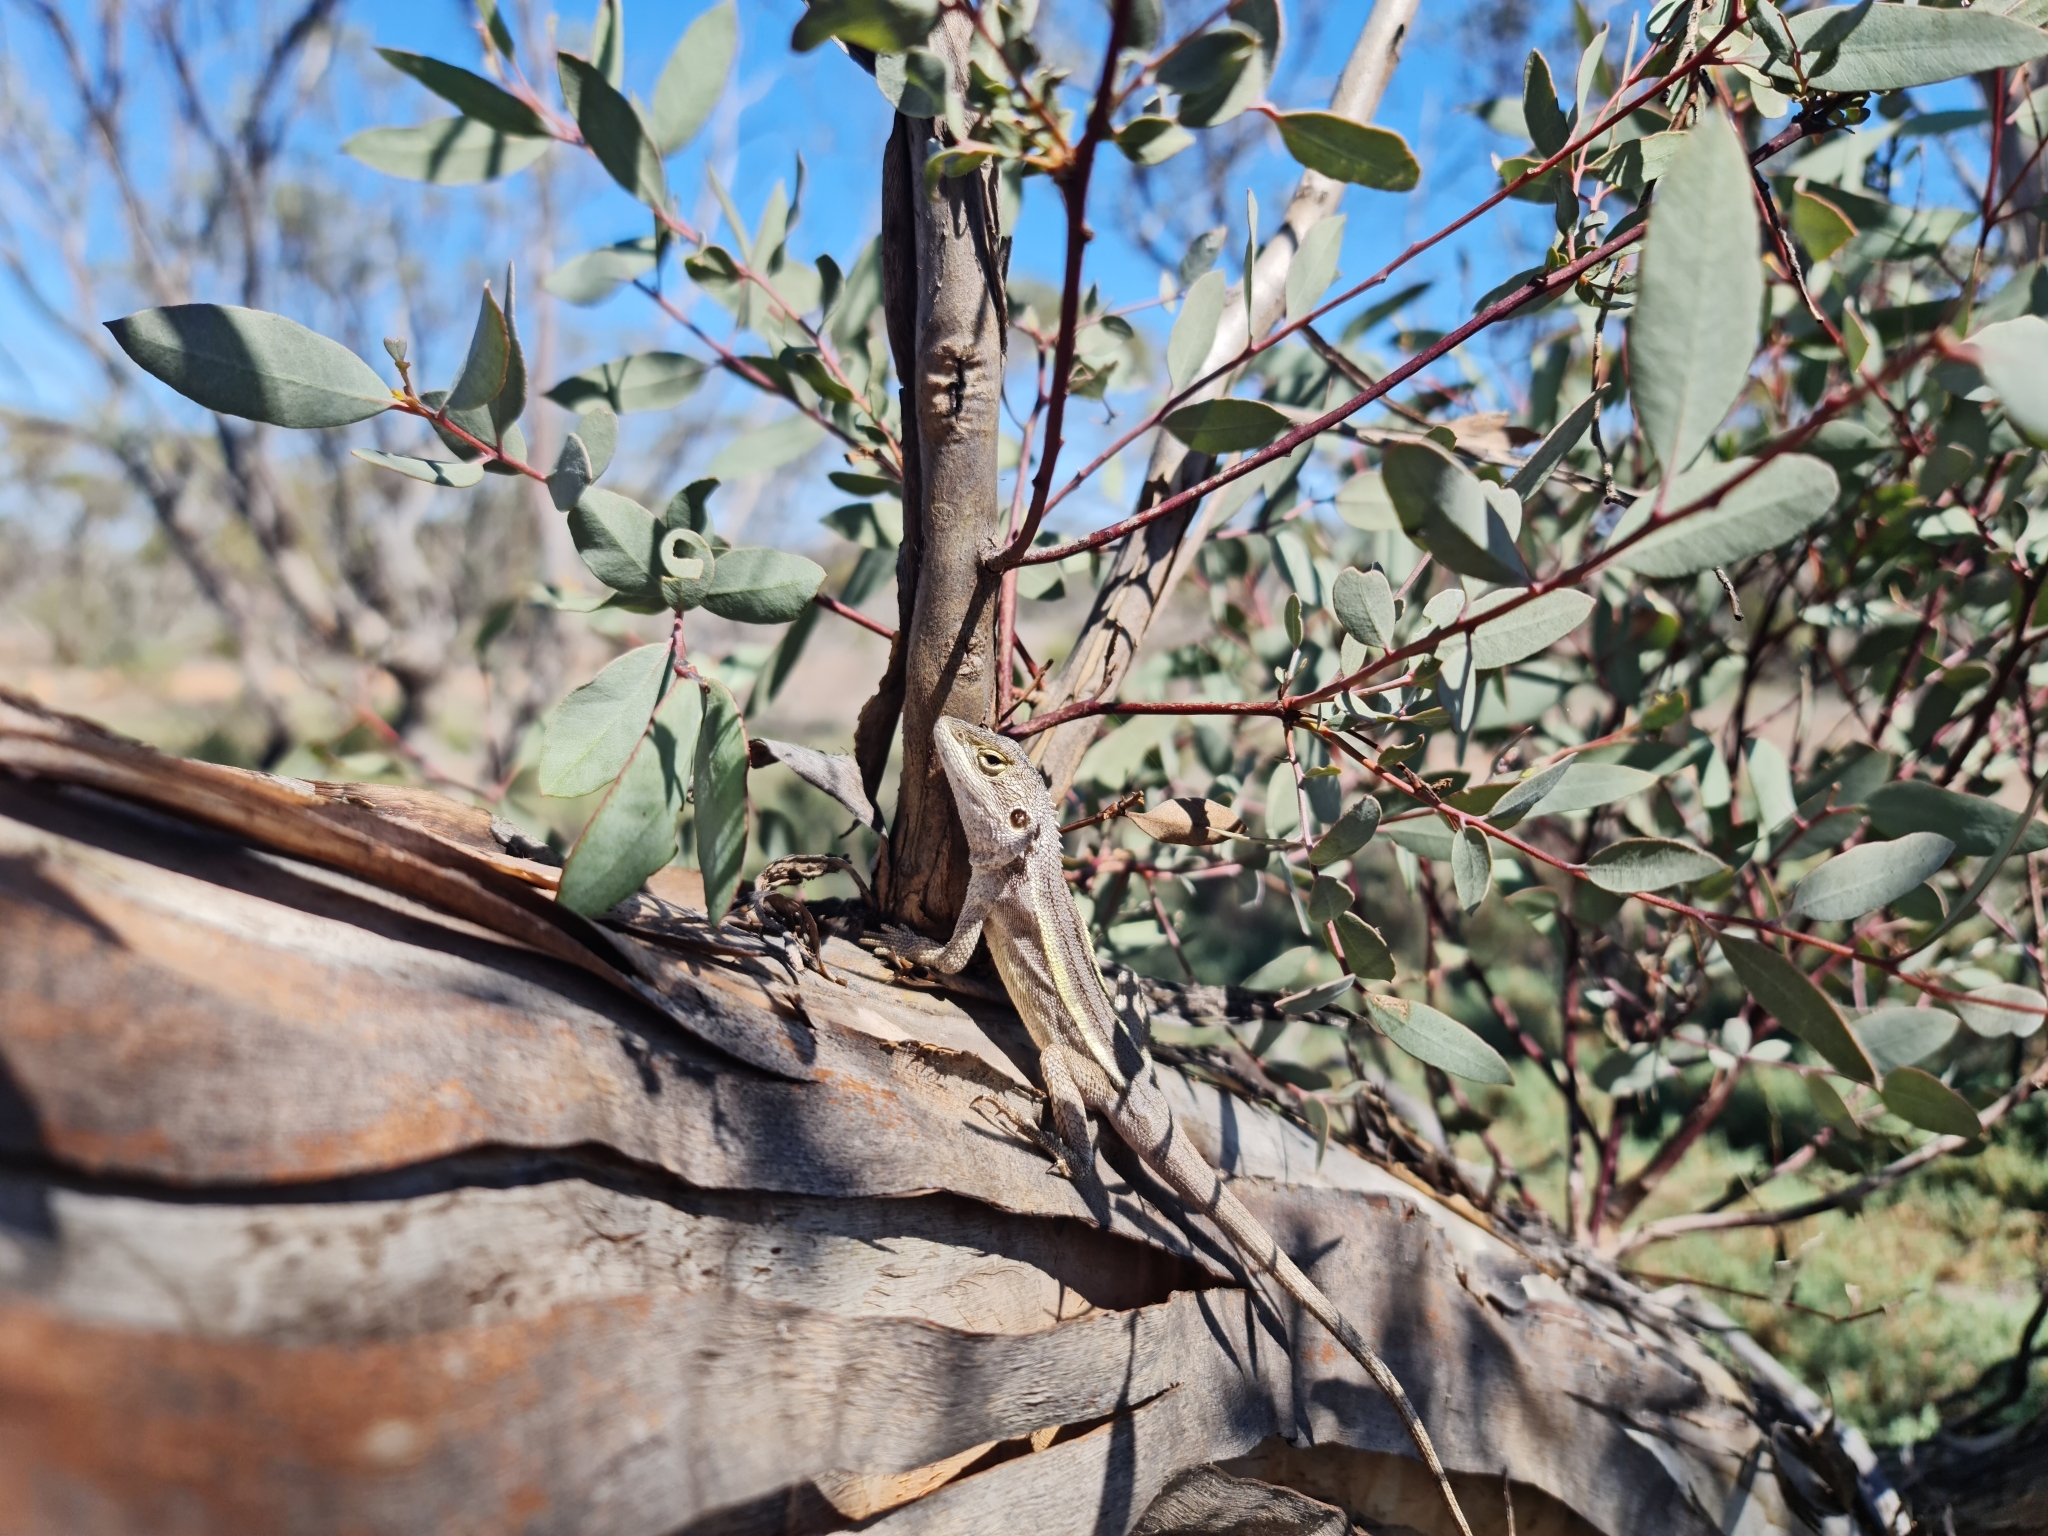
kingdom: Animalia
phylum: Chordata
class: Squamata
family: Agamidae
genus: Diporiphora
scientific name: Diporiphora nobbi
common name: Nobbi
